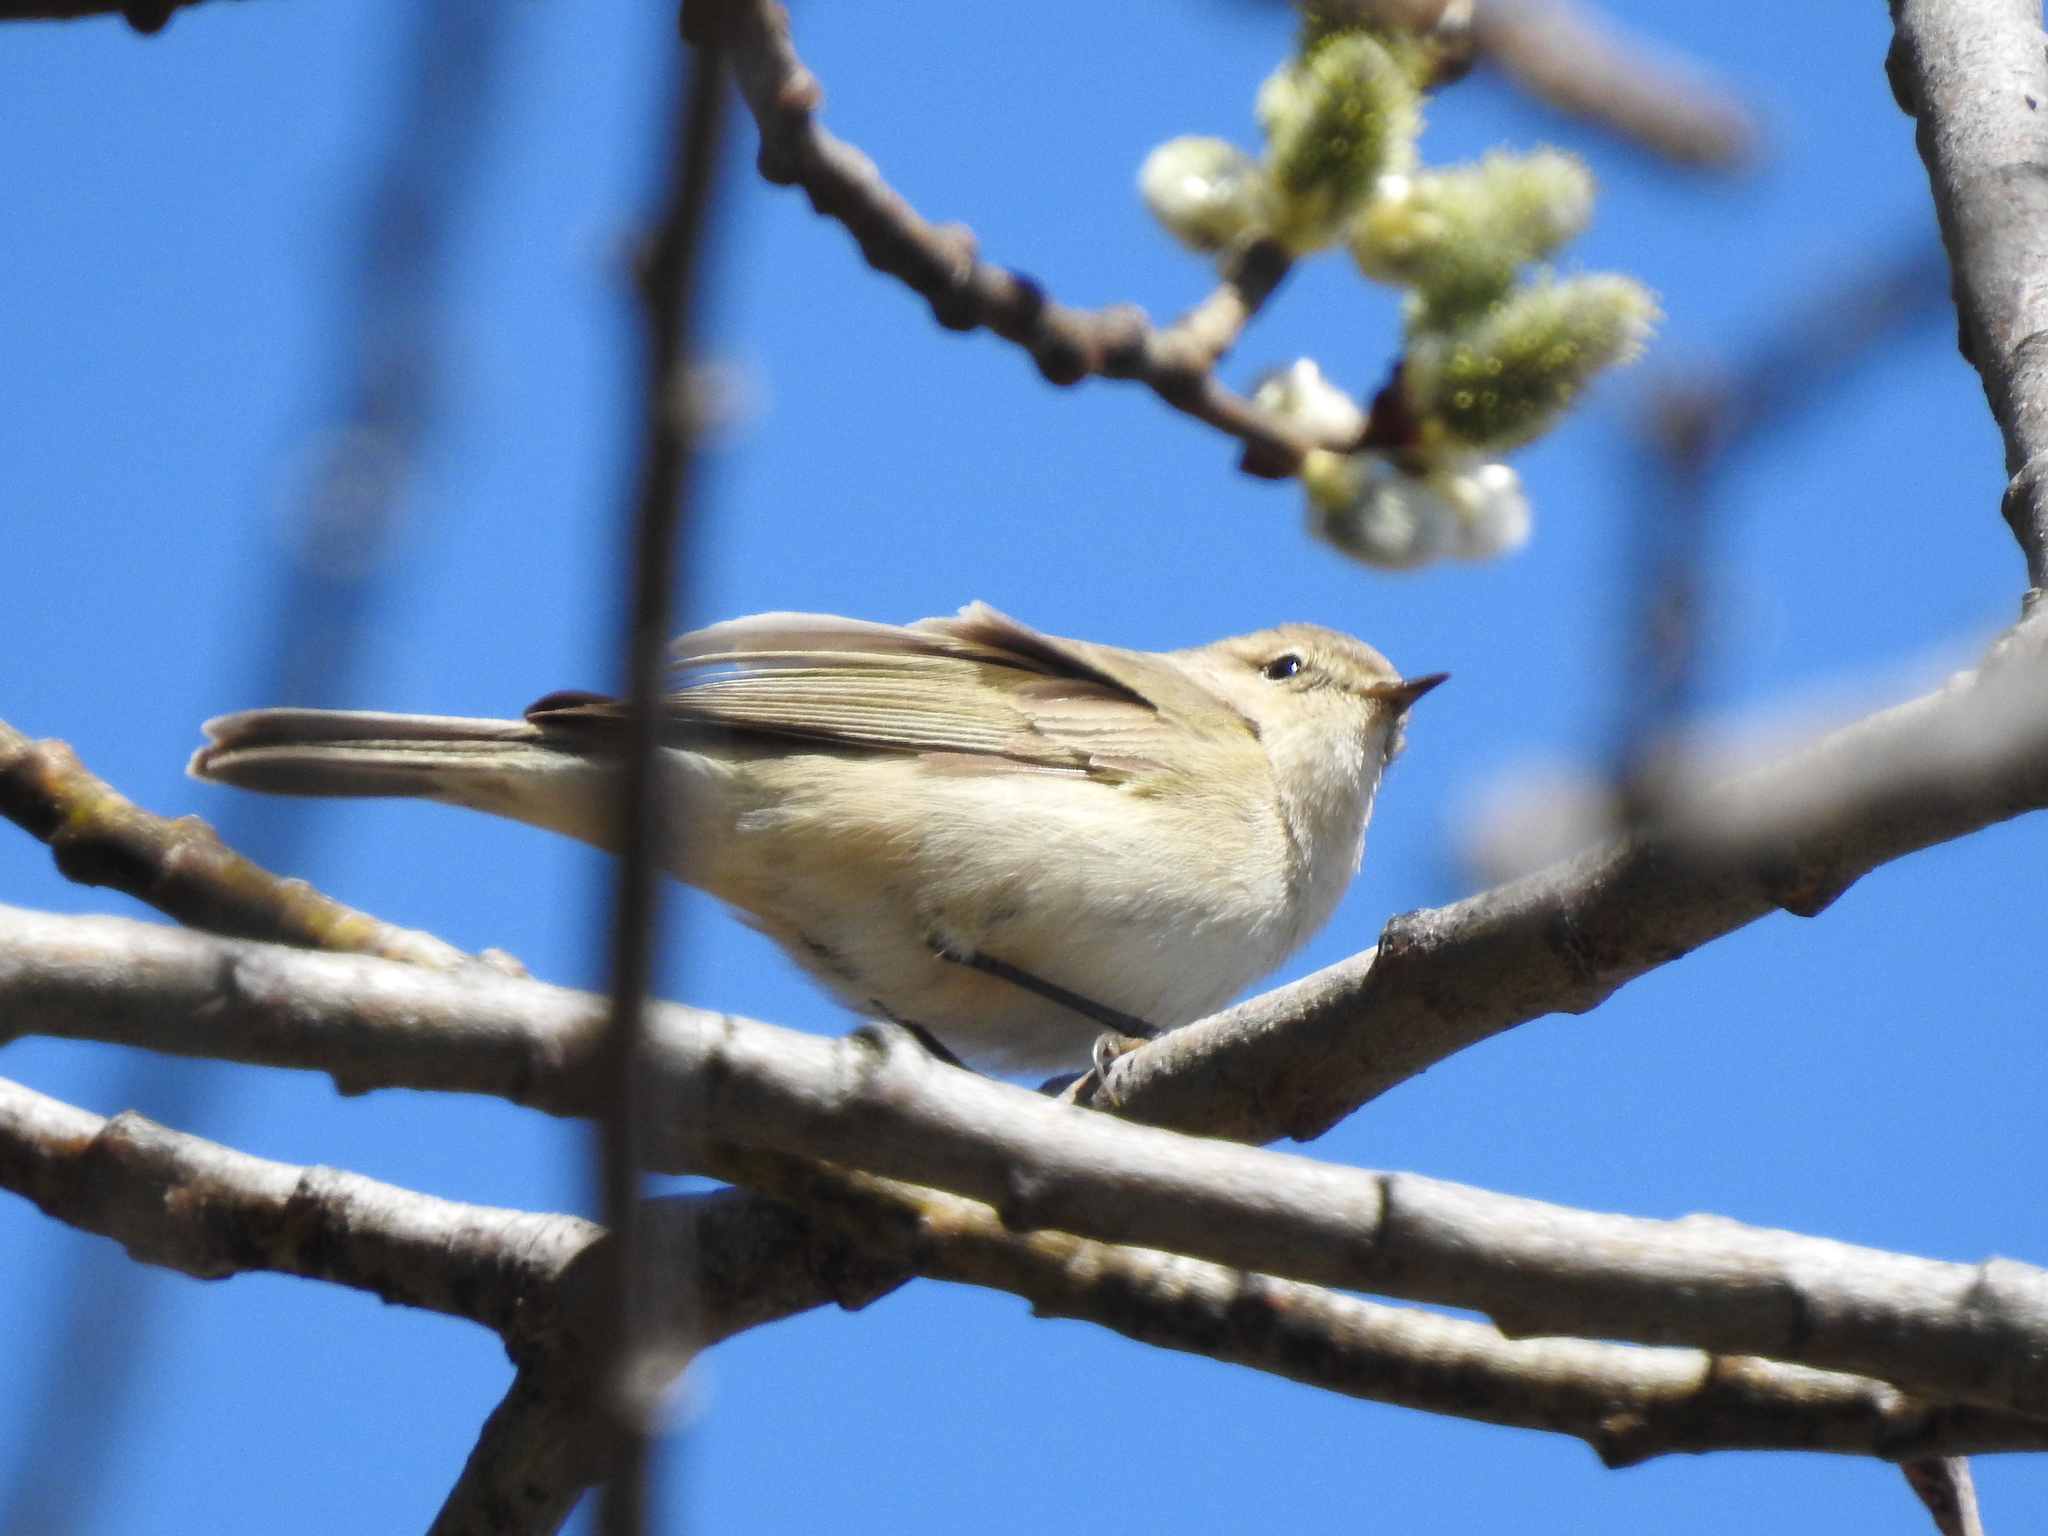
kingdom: Animalia
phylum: Chordata
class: Aves
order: Passeriformes
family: Phylloscopidae
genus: Phylloscopus
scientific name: Phylloscopus collybita
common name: Common chiffchaff
